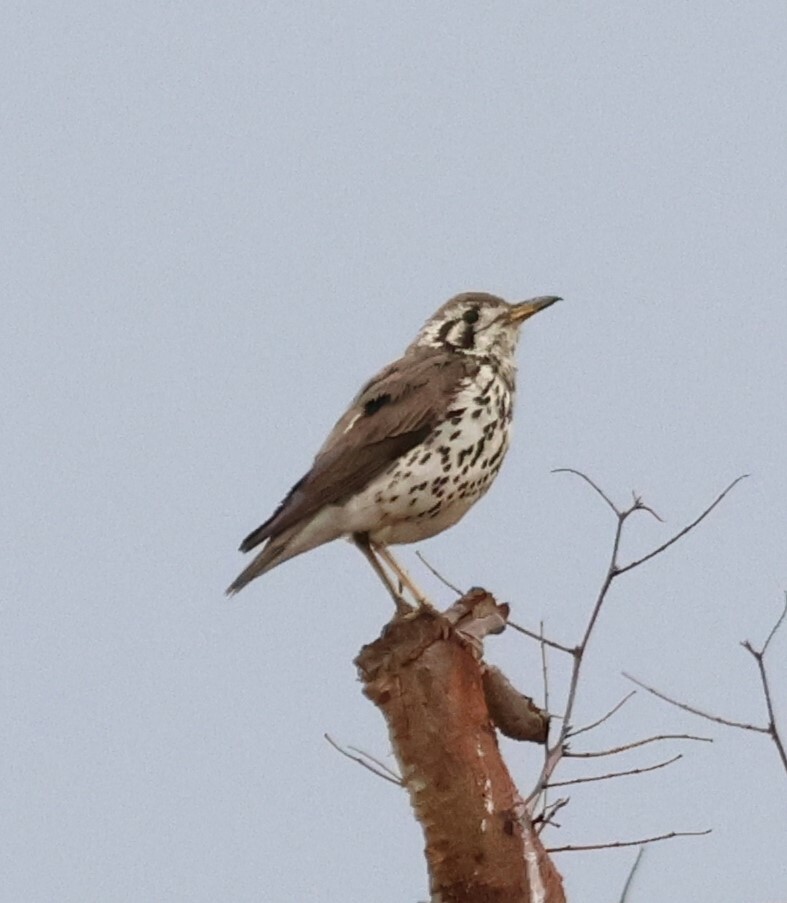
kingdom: Animalia
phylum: Chordata
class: Aves
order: Passeriformes
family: Turdidae
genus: Psophocichla
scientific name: Psophocichla litsitsirupa
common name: Groundscraper thrush
